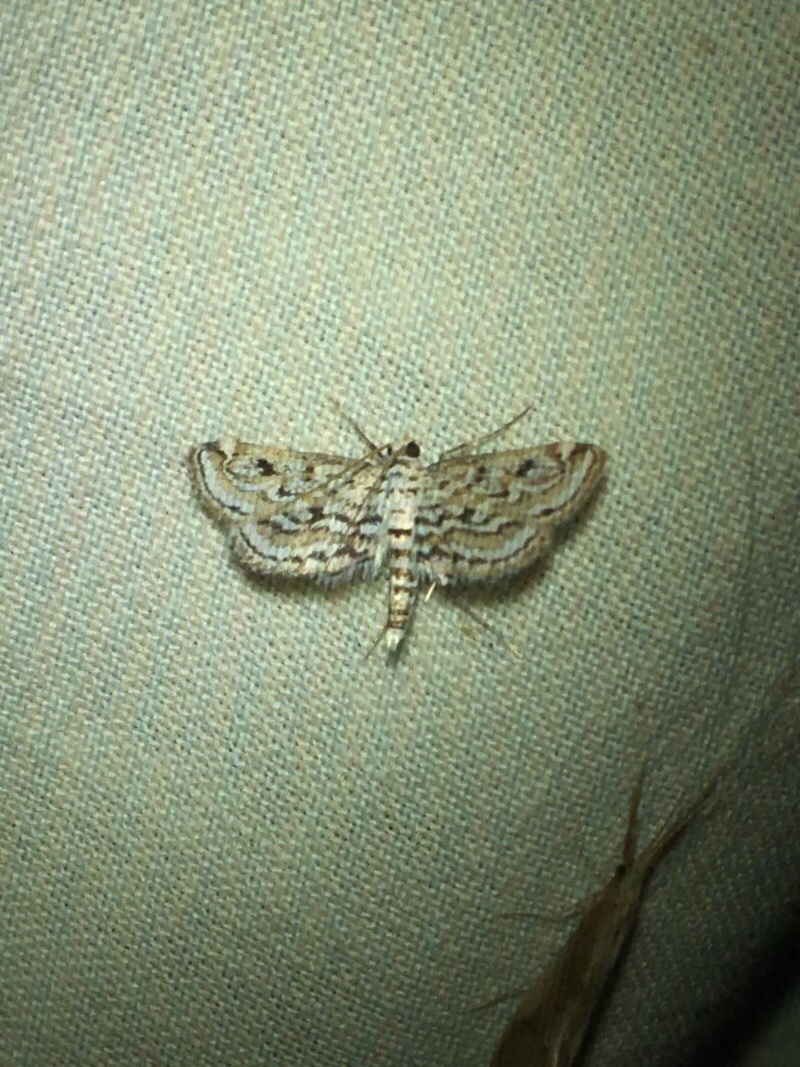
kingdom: Animalia
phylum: Arthropoda
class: Insecta
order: Lepidoptera
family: Crambidae
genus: Parapoynx
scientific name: Parapoynx allionealis
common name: Bladderwort casemaker
